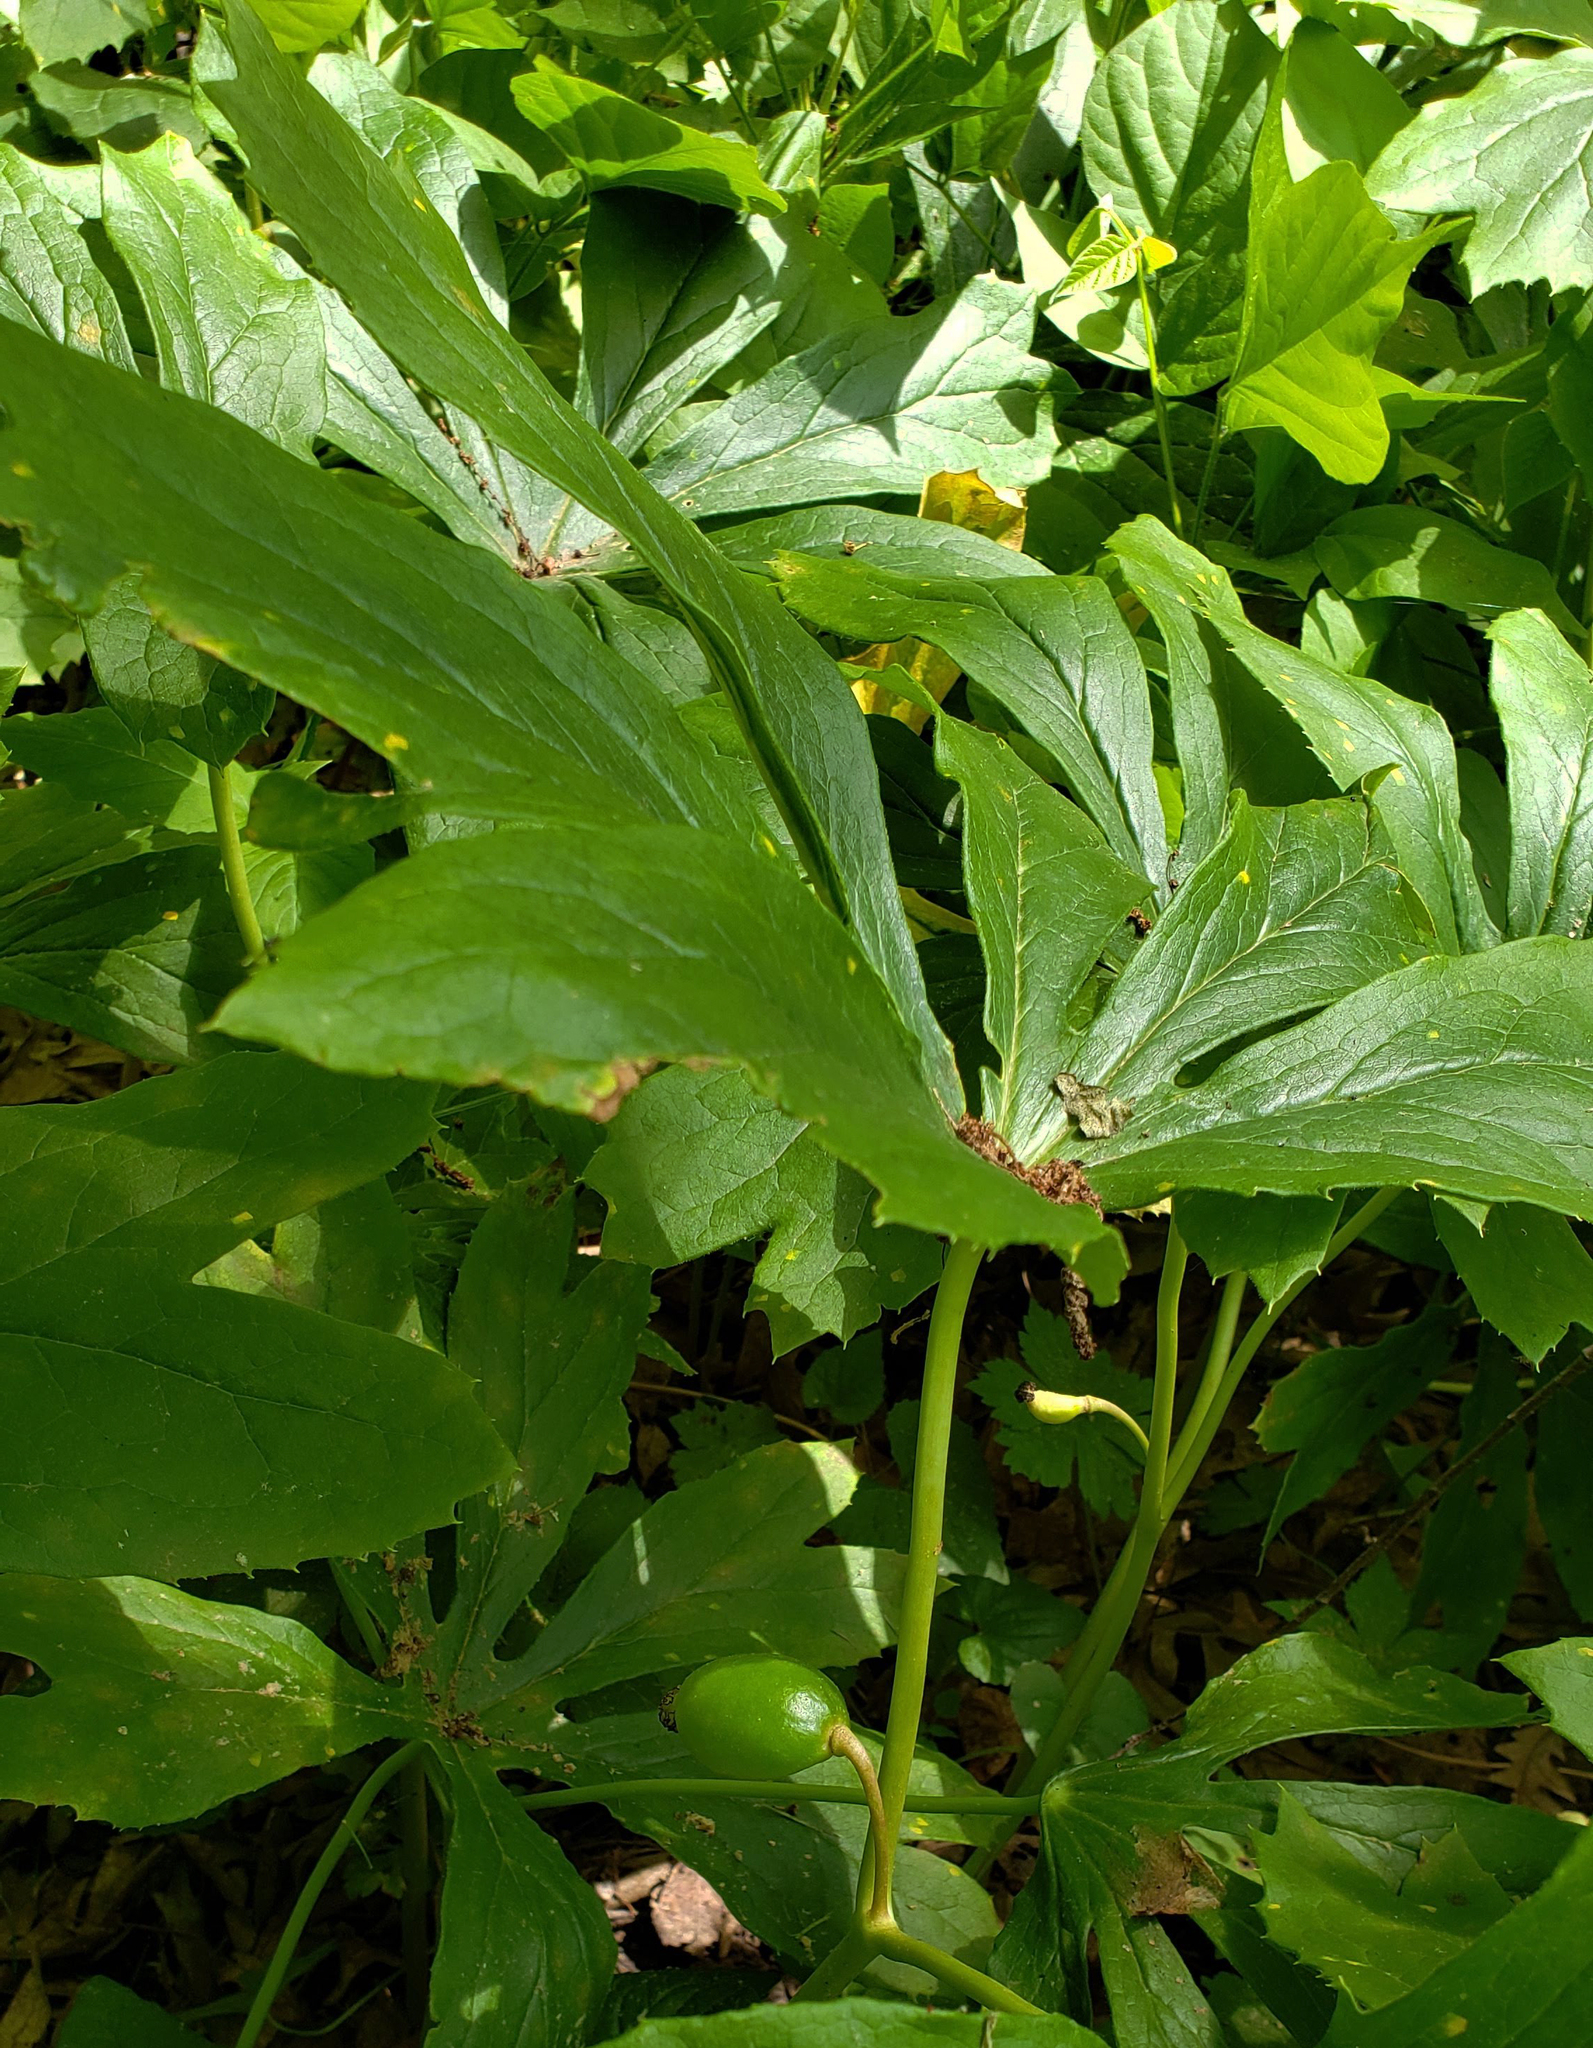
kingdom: Plantae
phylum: Tracheophyta
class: Magnoliopsida
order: Ranunculales
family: Berberidaceae
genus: Podophyllum
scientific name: Podophyllum peltatum
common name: Wild mandrake
